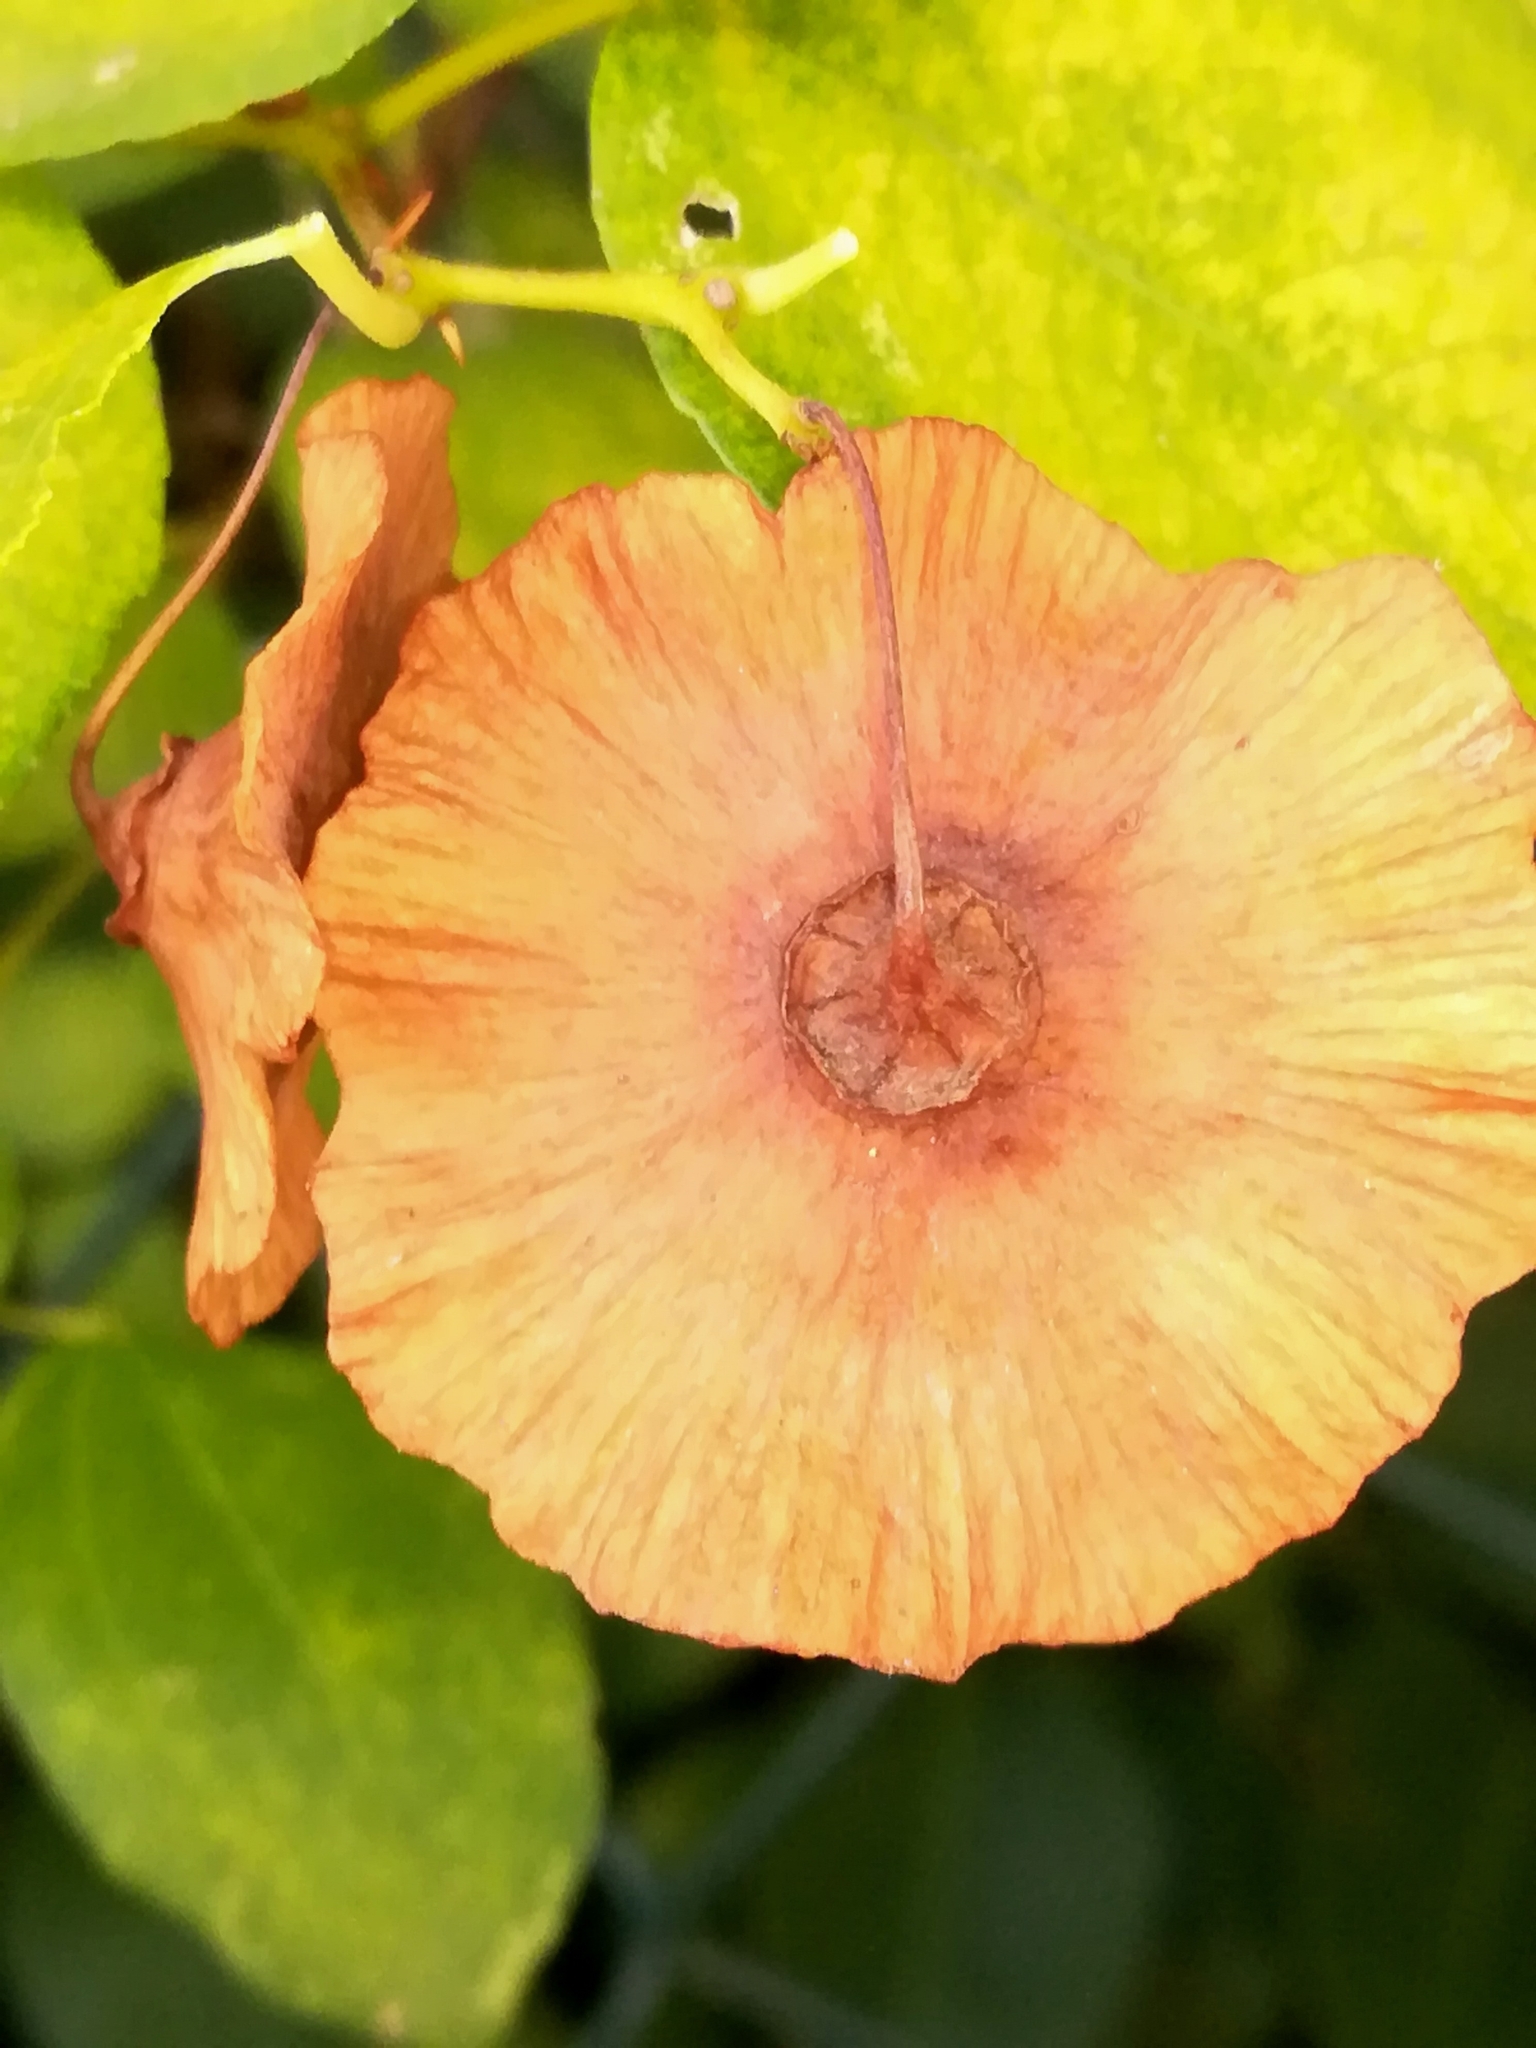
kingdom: Plantae
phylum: Tracheophyta
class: Magnoliopsida
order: Rosales
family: Rhamnaceae
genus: Paliurus
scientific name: Paliurus spina-christi
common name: Jeruselem thorn
